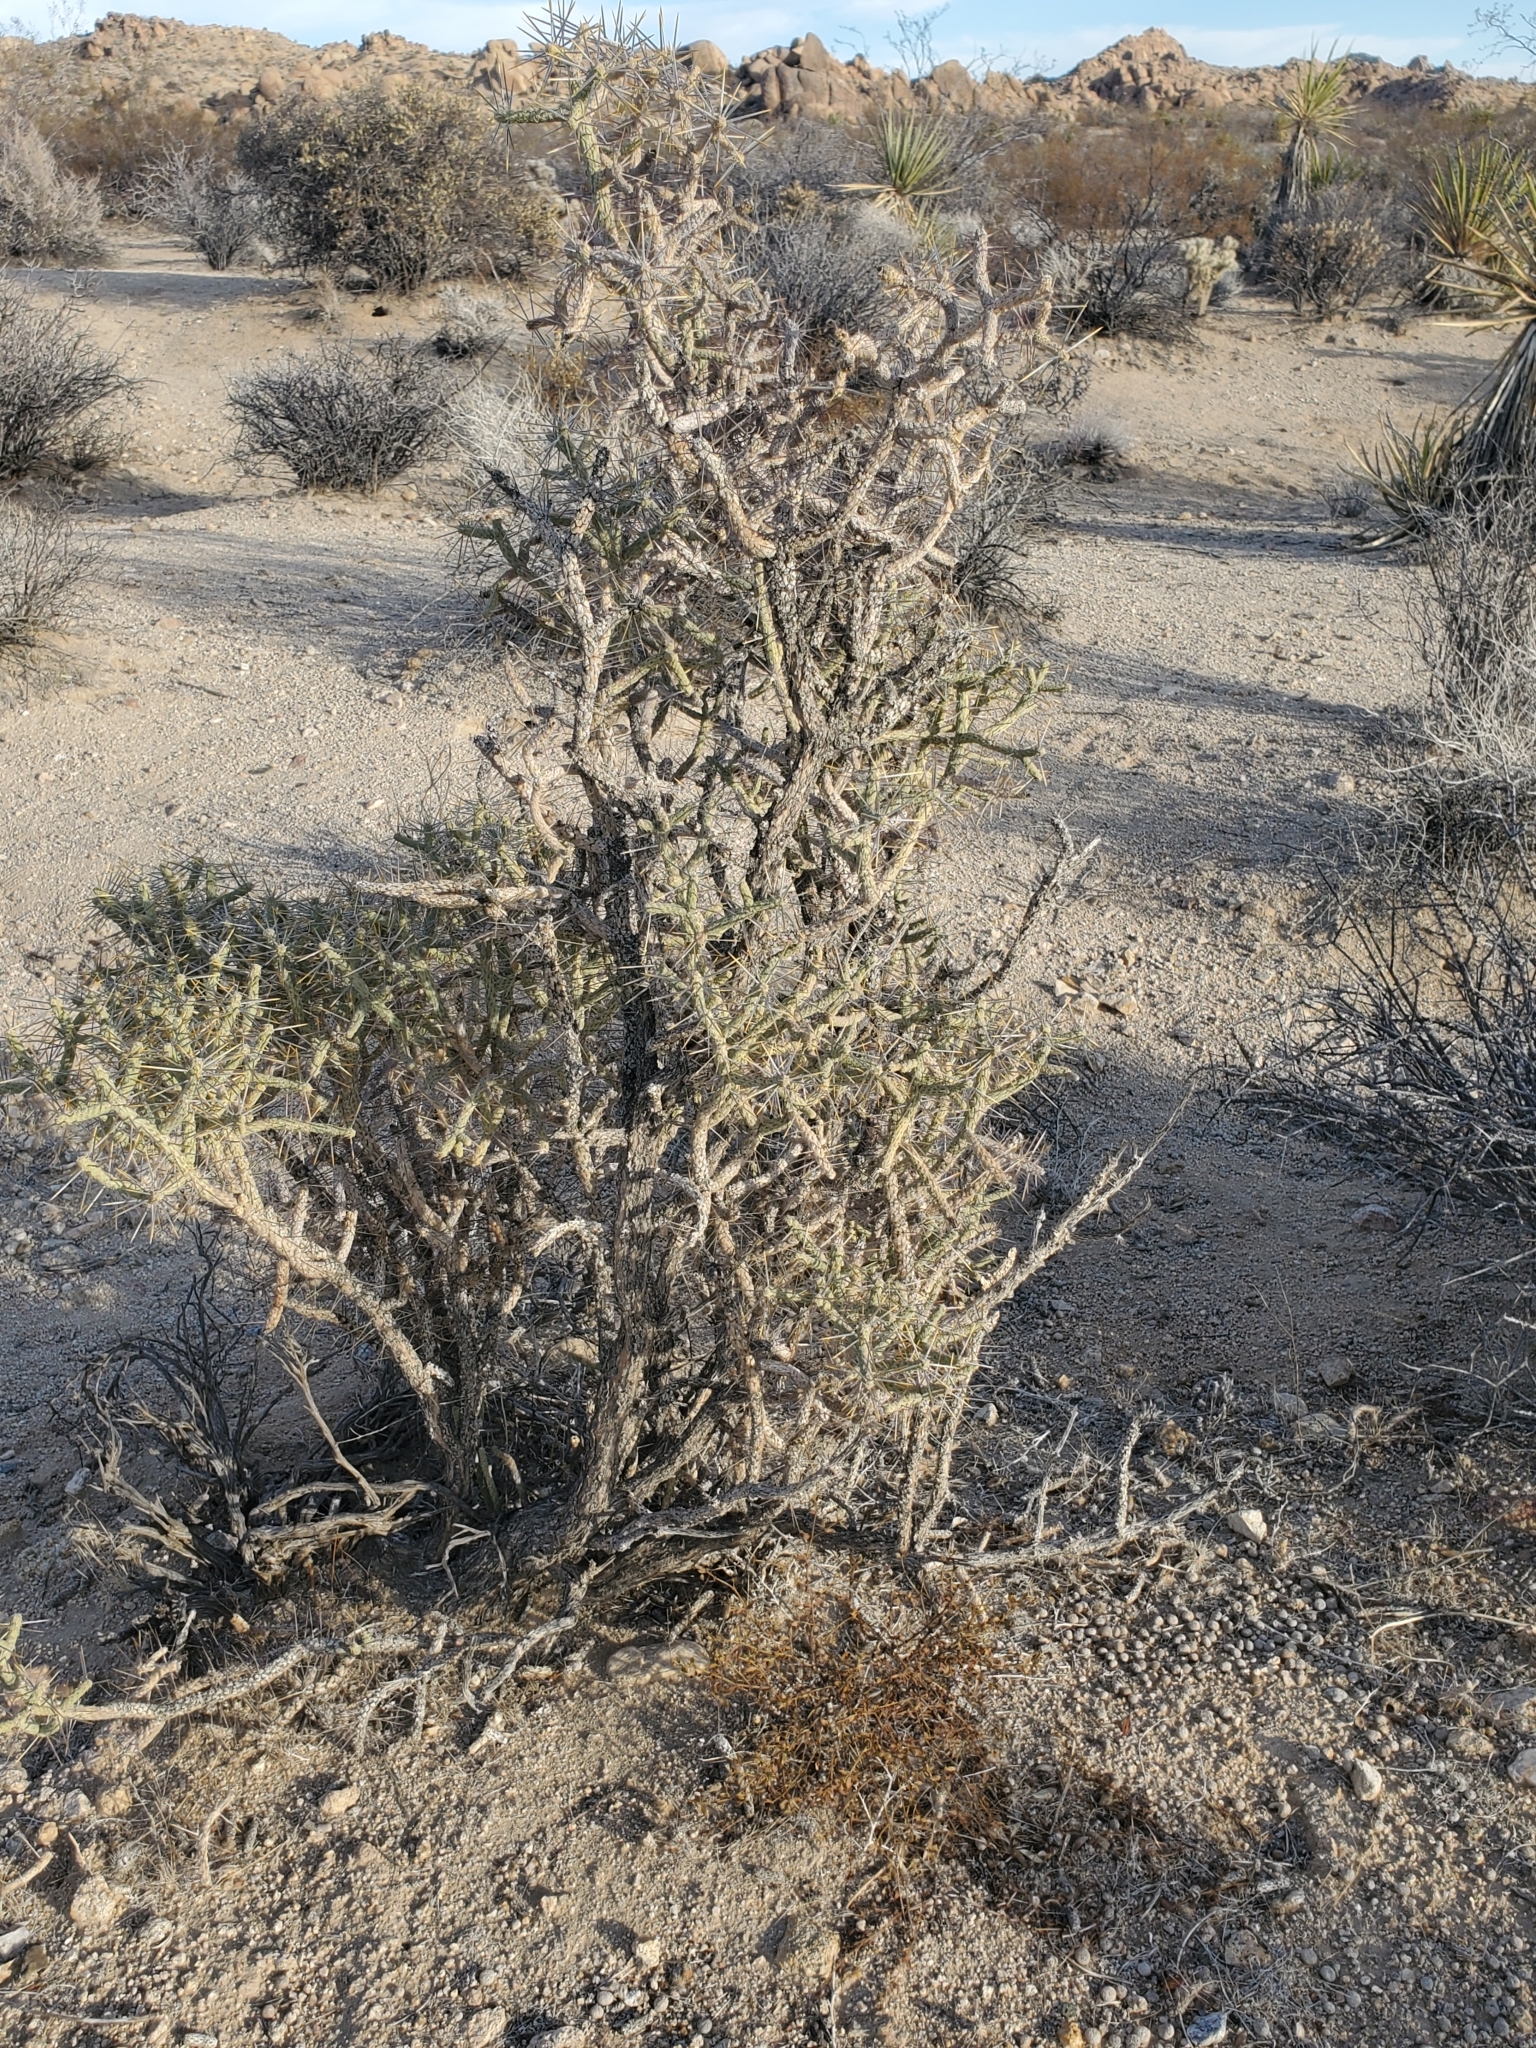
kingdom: Plantae
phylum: Tracheophyta
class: Magnoliopsida
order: Caryophyllales
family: Cactaceae
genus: Cylindropuntia
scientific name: Cylindropuntia ramosissima
